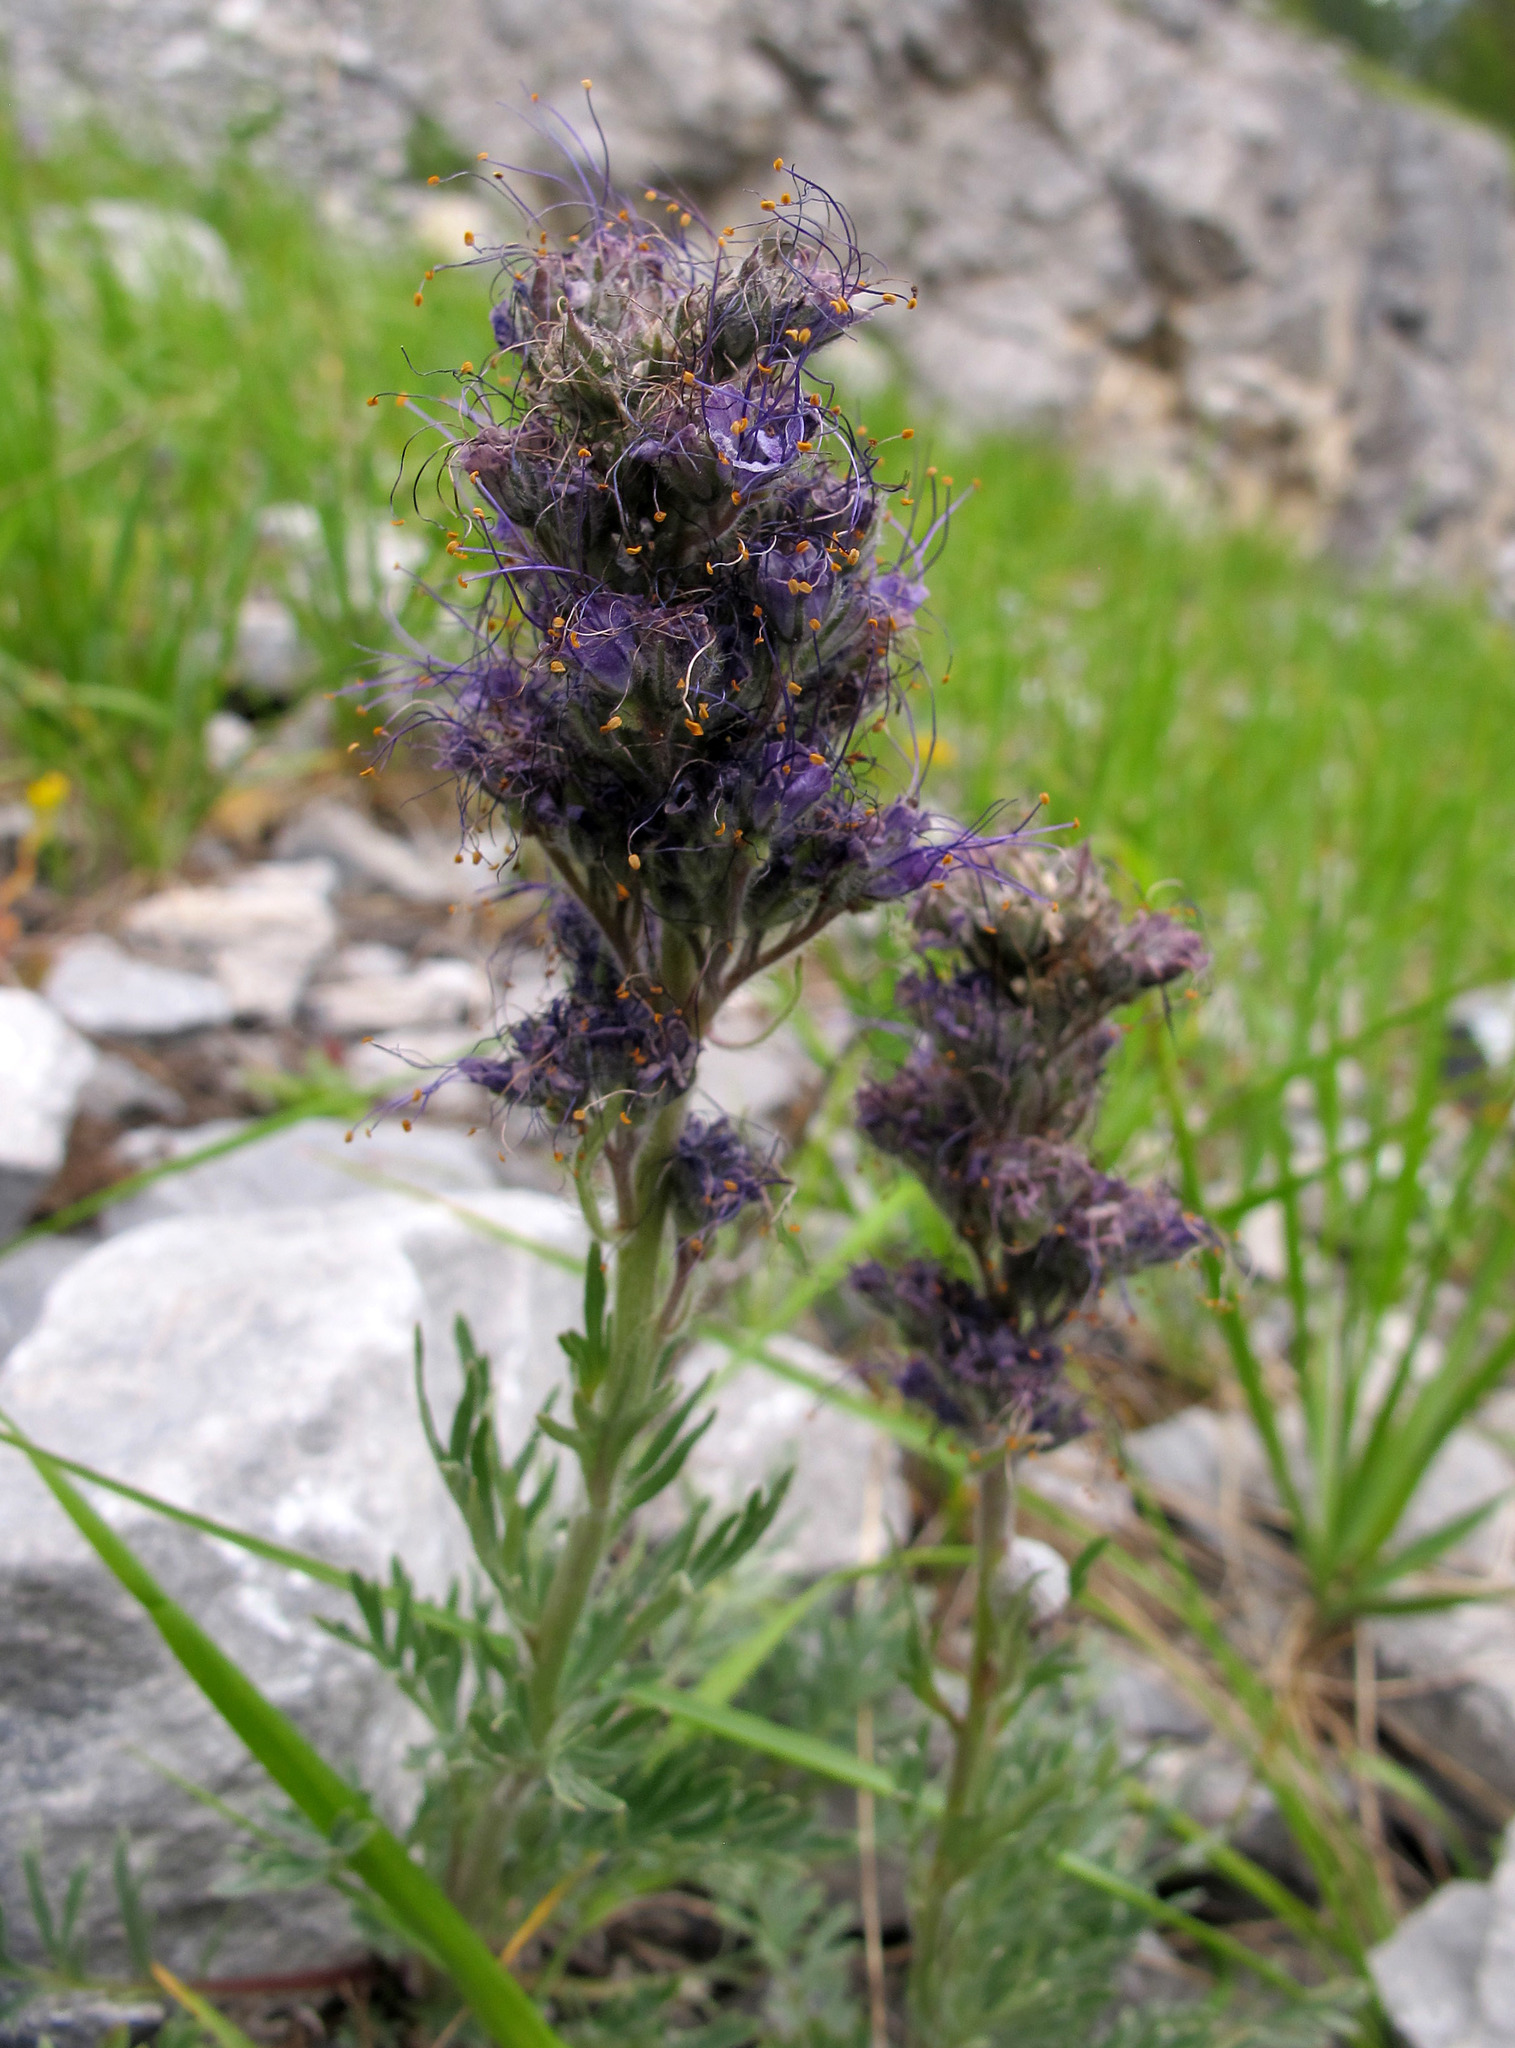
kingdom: Plantae
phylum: Tracheophyta
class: Magnoliopsida
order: Boraginales
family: Hydrophyllaceae
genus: Phacelia
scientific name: Phacelia sericea
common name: Silky phacelia
